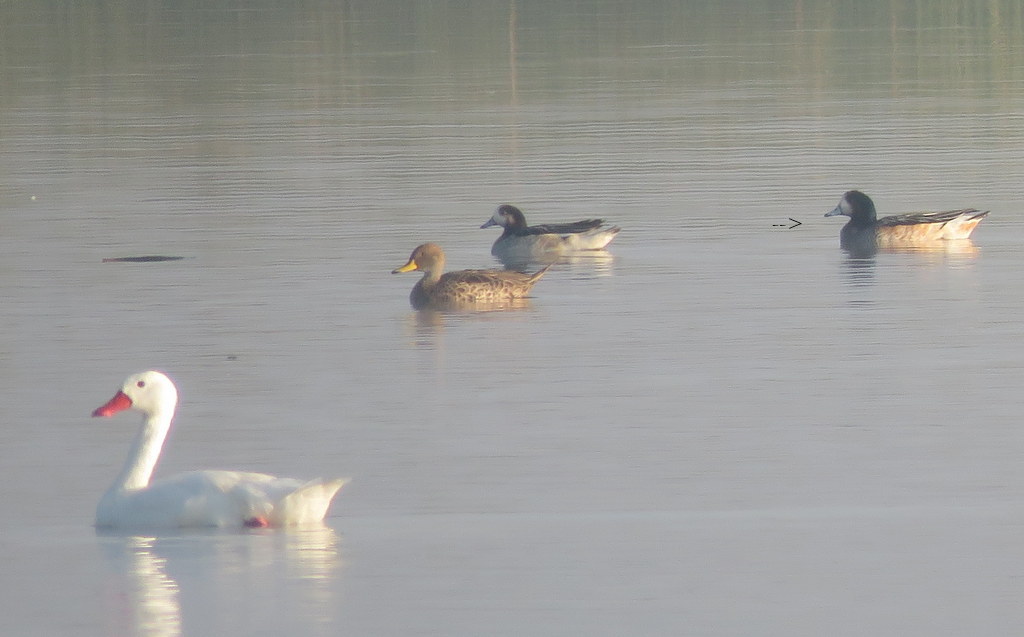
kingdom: Animalia
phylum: Chordata
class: Aves
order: Anseriformes
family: Anatidae
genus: Mareca
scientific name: Mareca sibilatrix
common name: Chiloe wigeon
